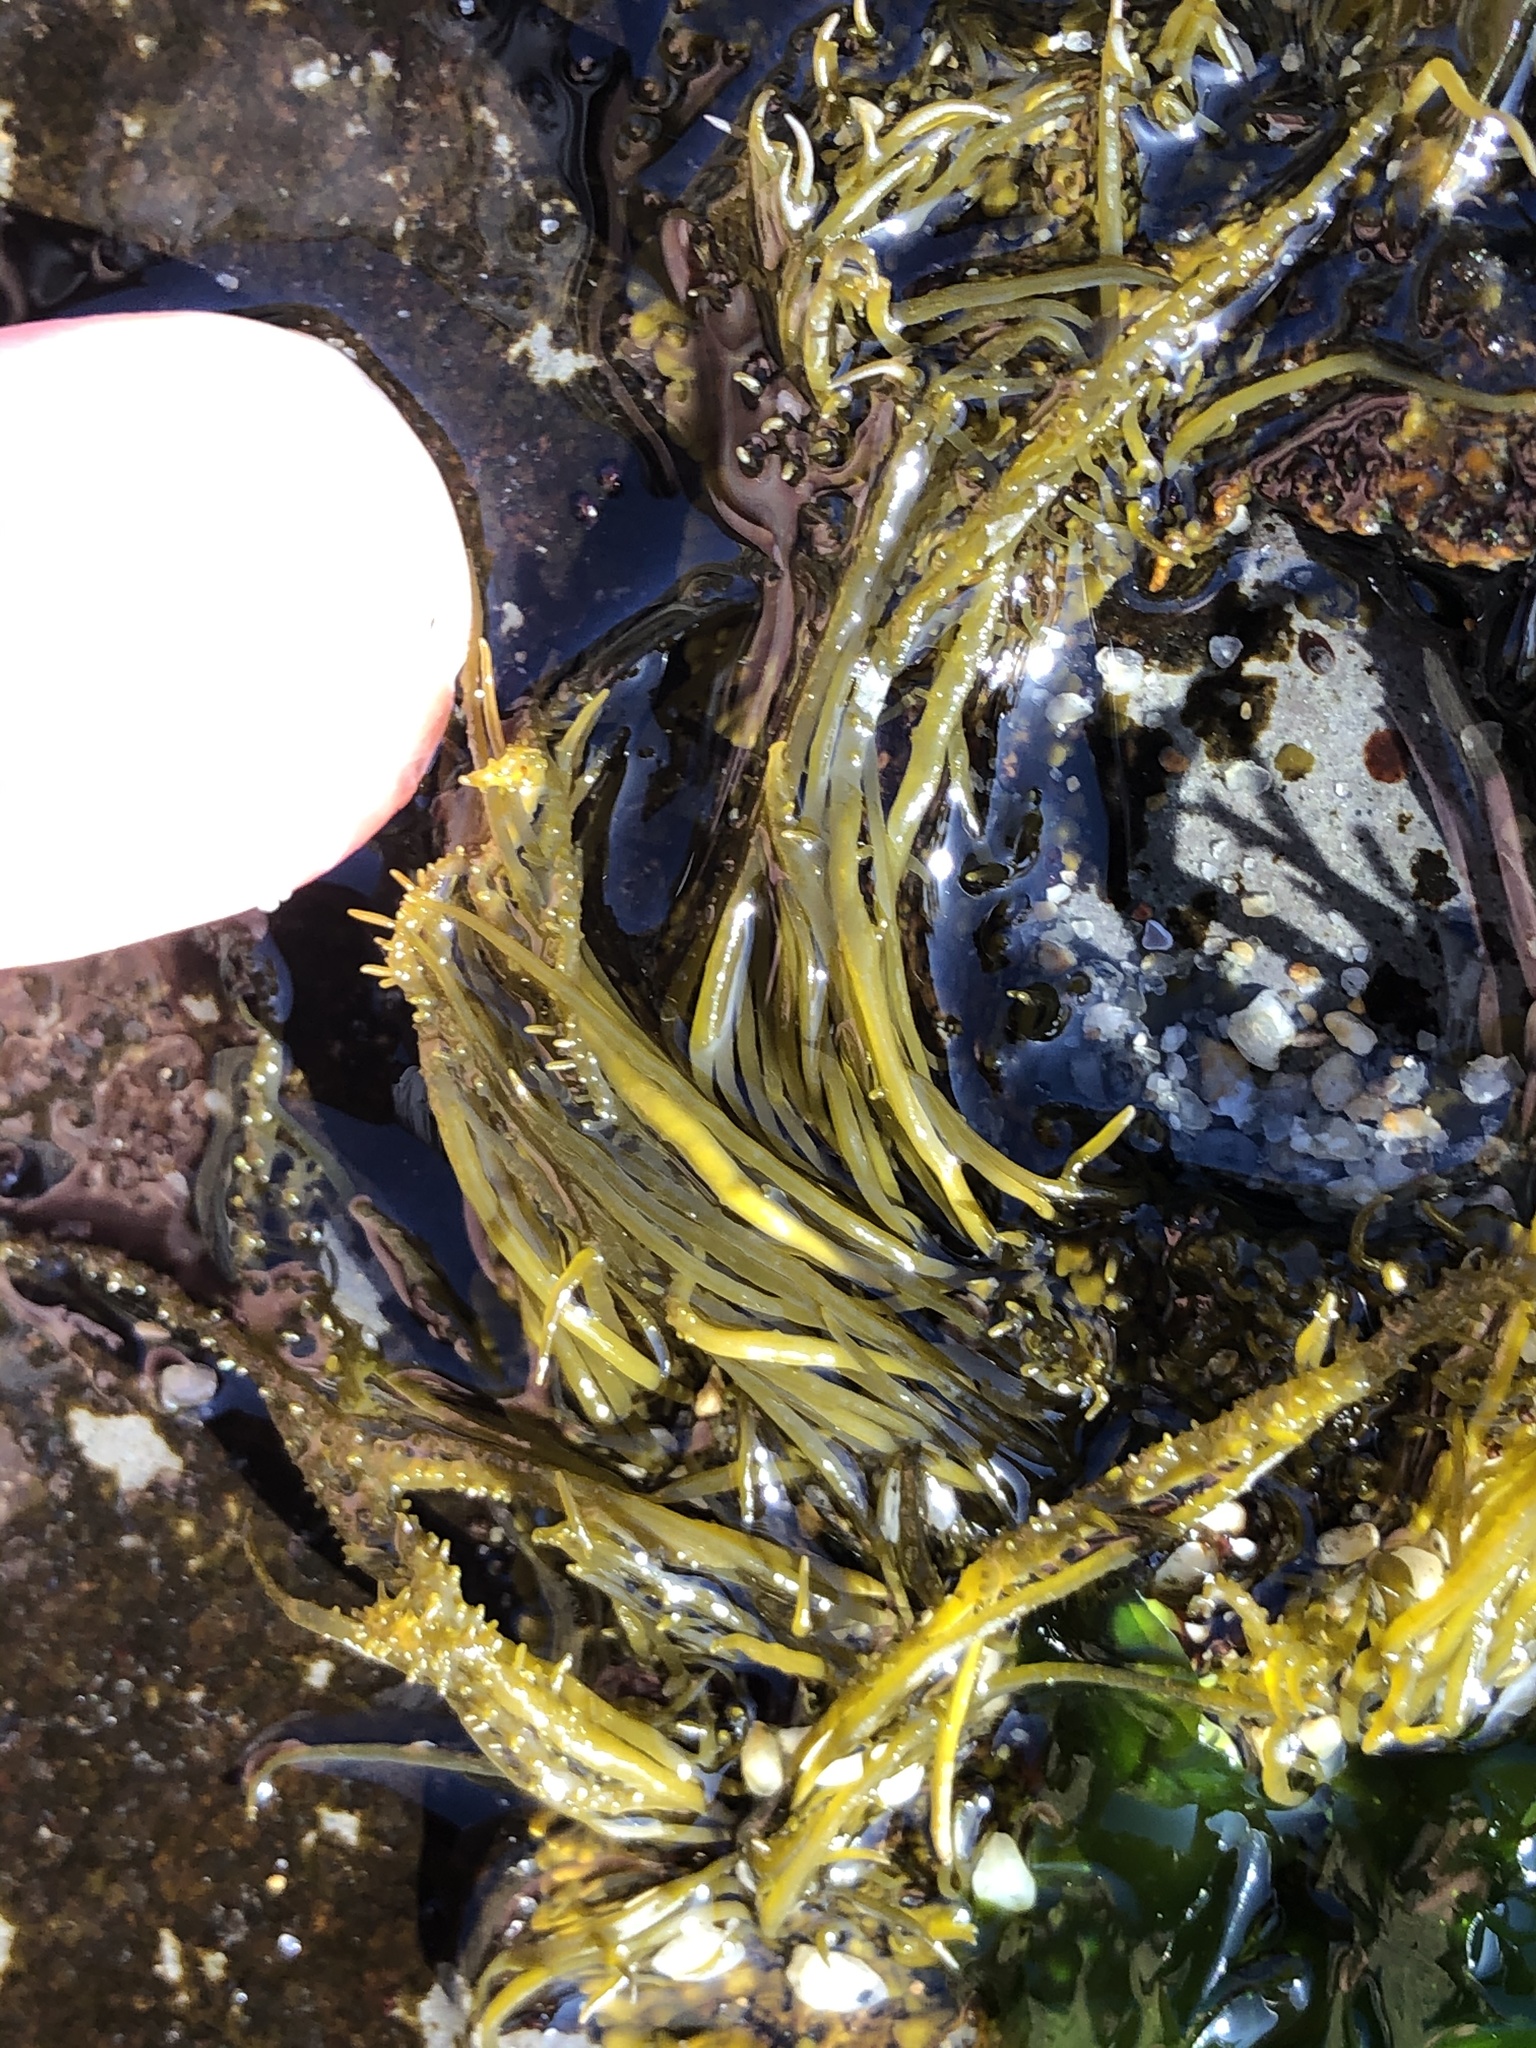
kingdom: Chromista
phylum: Ochrophyta
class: Phaeophyceae
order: Scytosiphonales
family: Scytosiphonaceae
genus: Analipus
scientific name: Analipus japonicus
